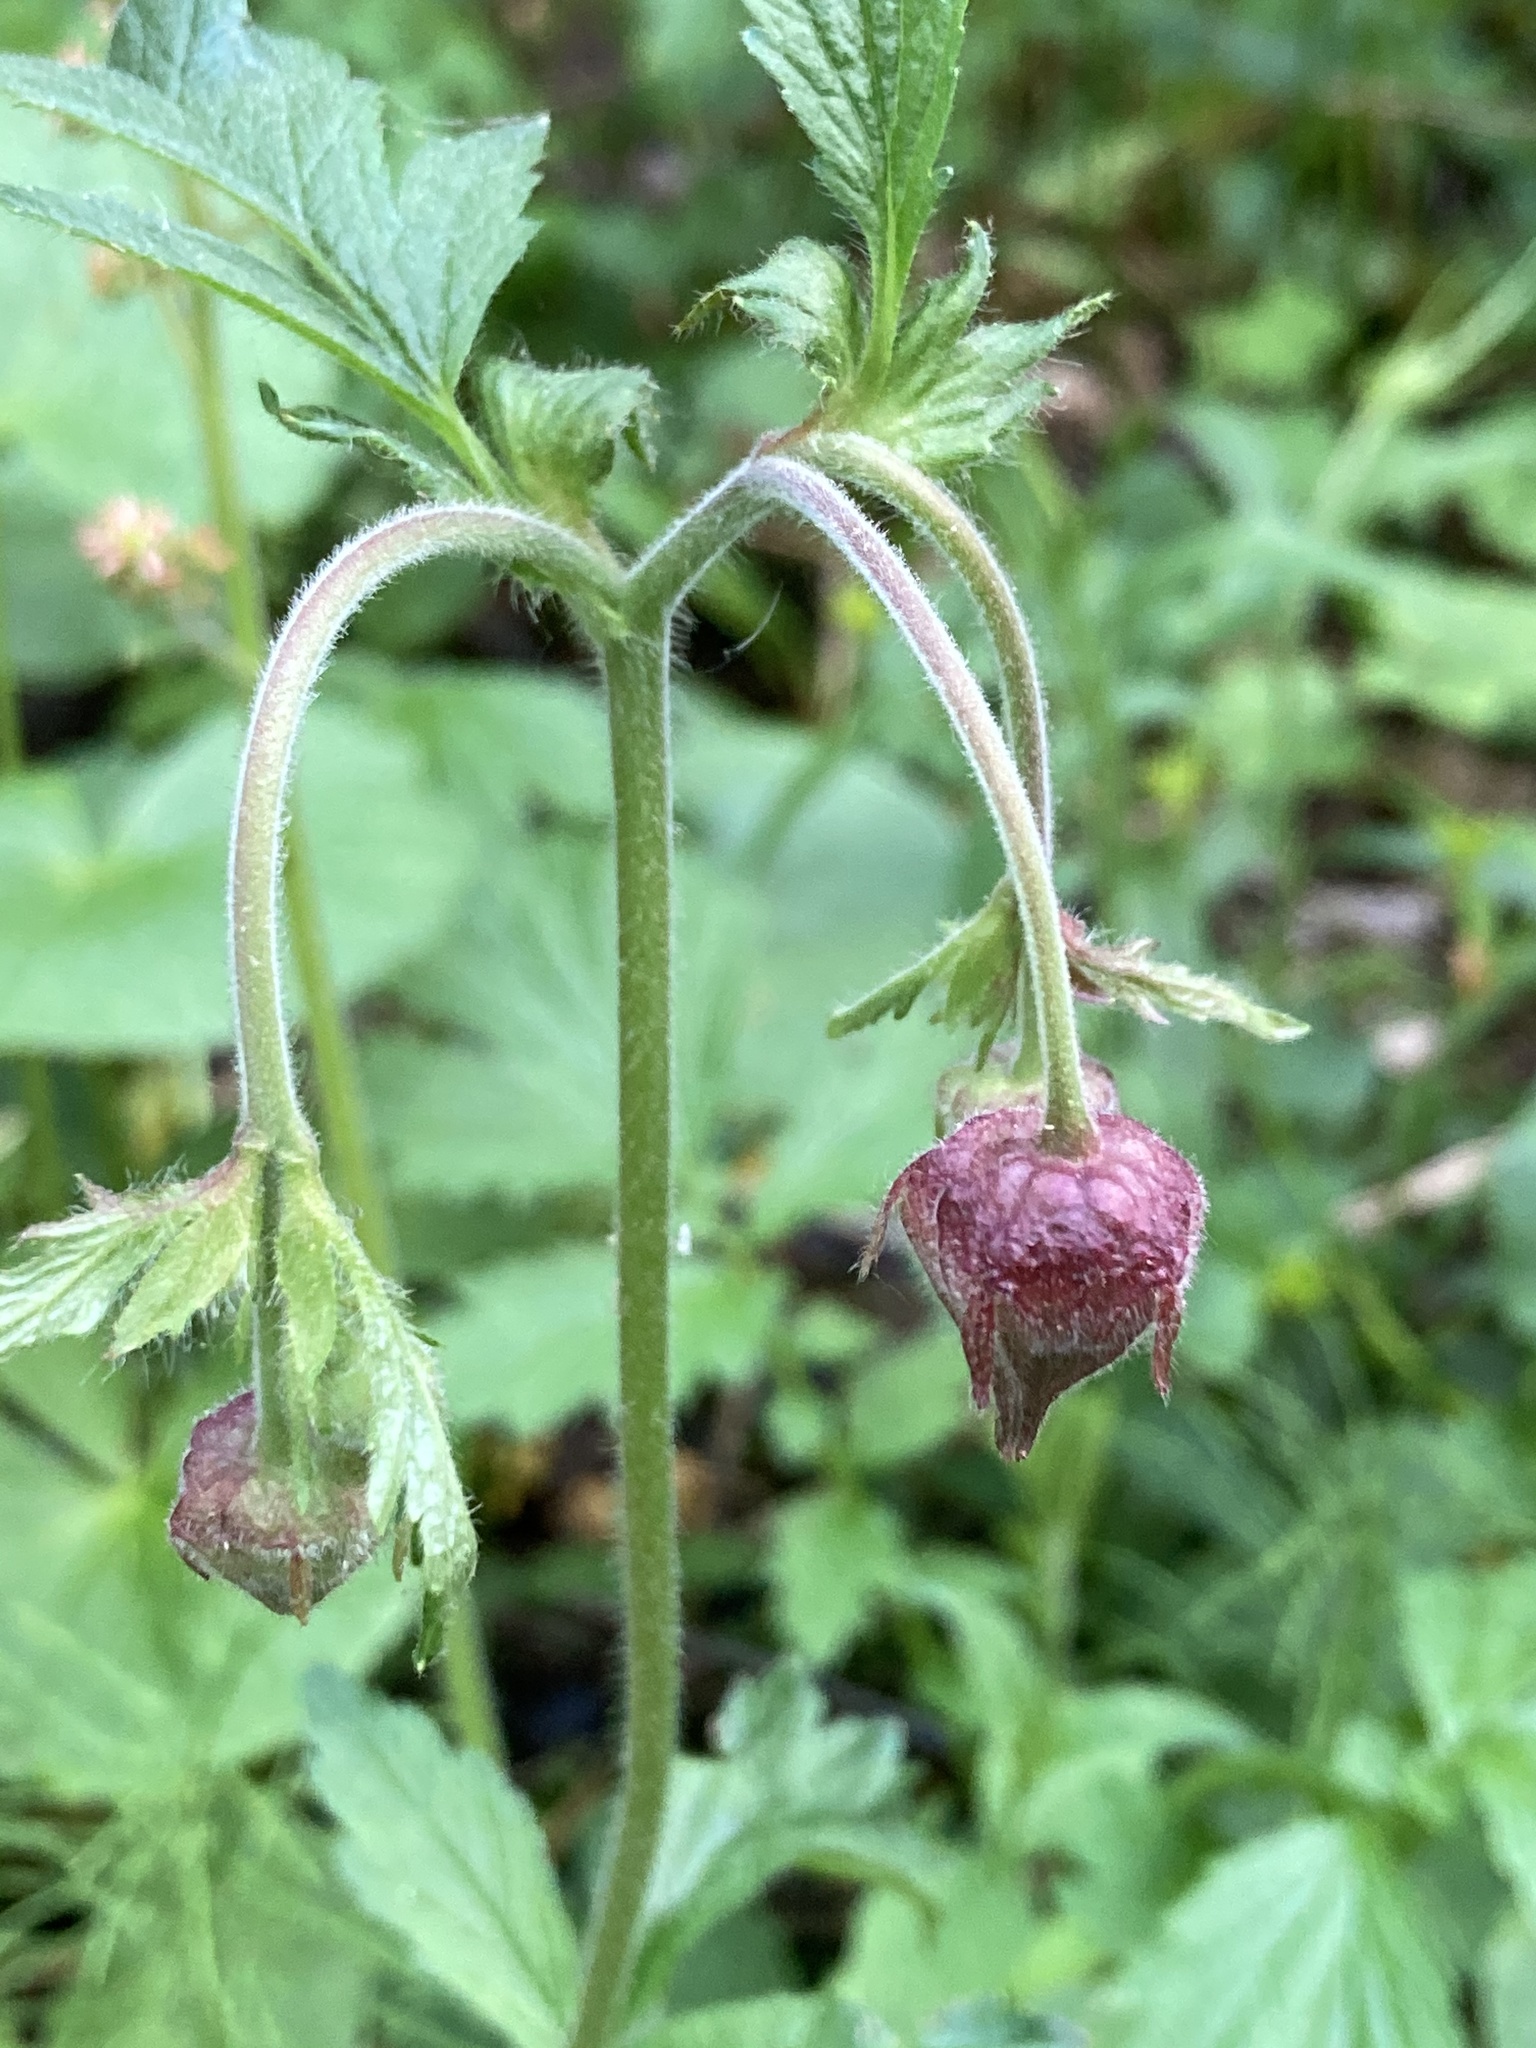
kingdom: Plantae
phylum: Tracheophyta
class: Magnoliopsida
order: Rosales
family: Rosaceae
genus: Geum
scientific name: Geum rivale
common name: Water avens
